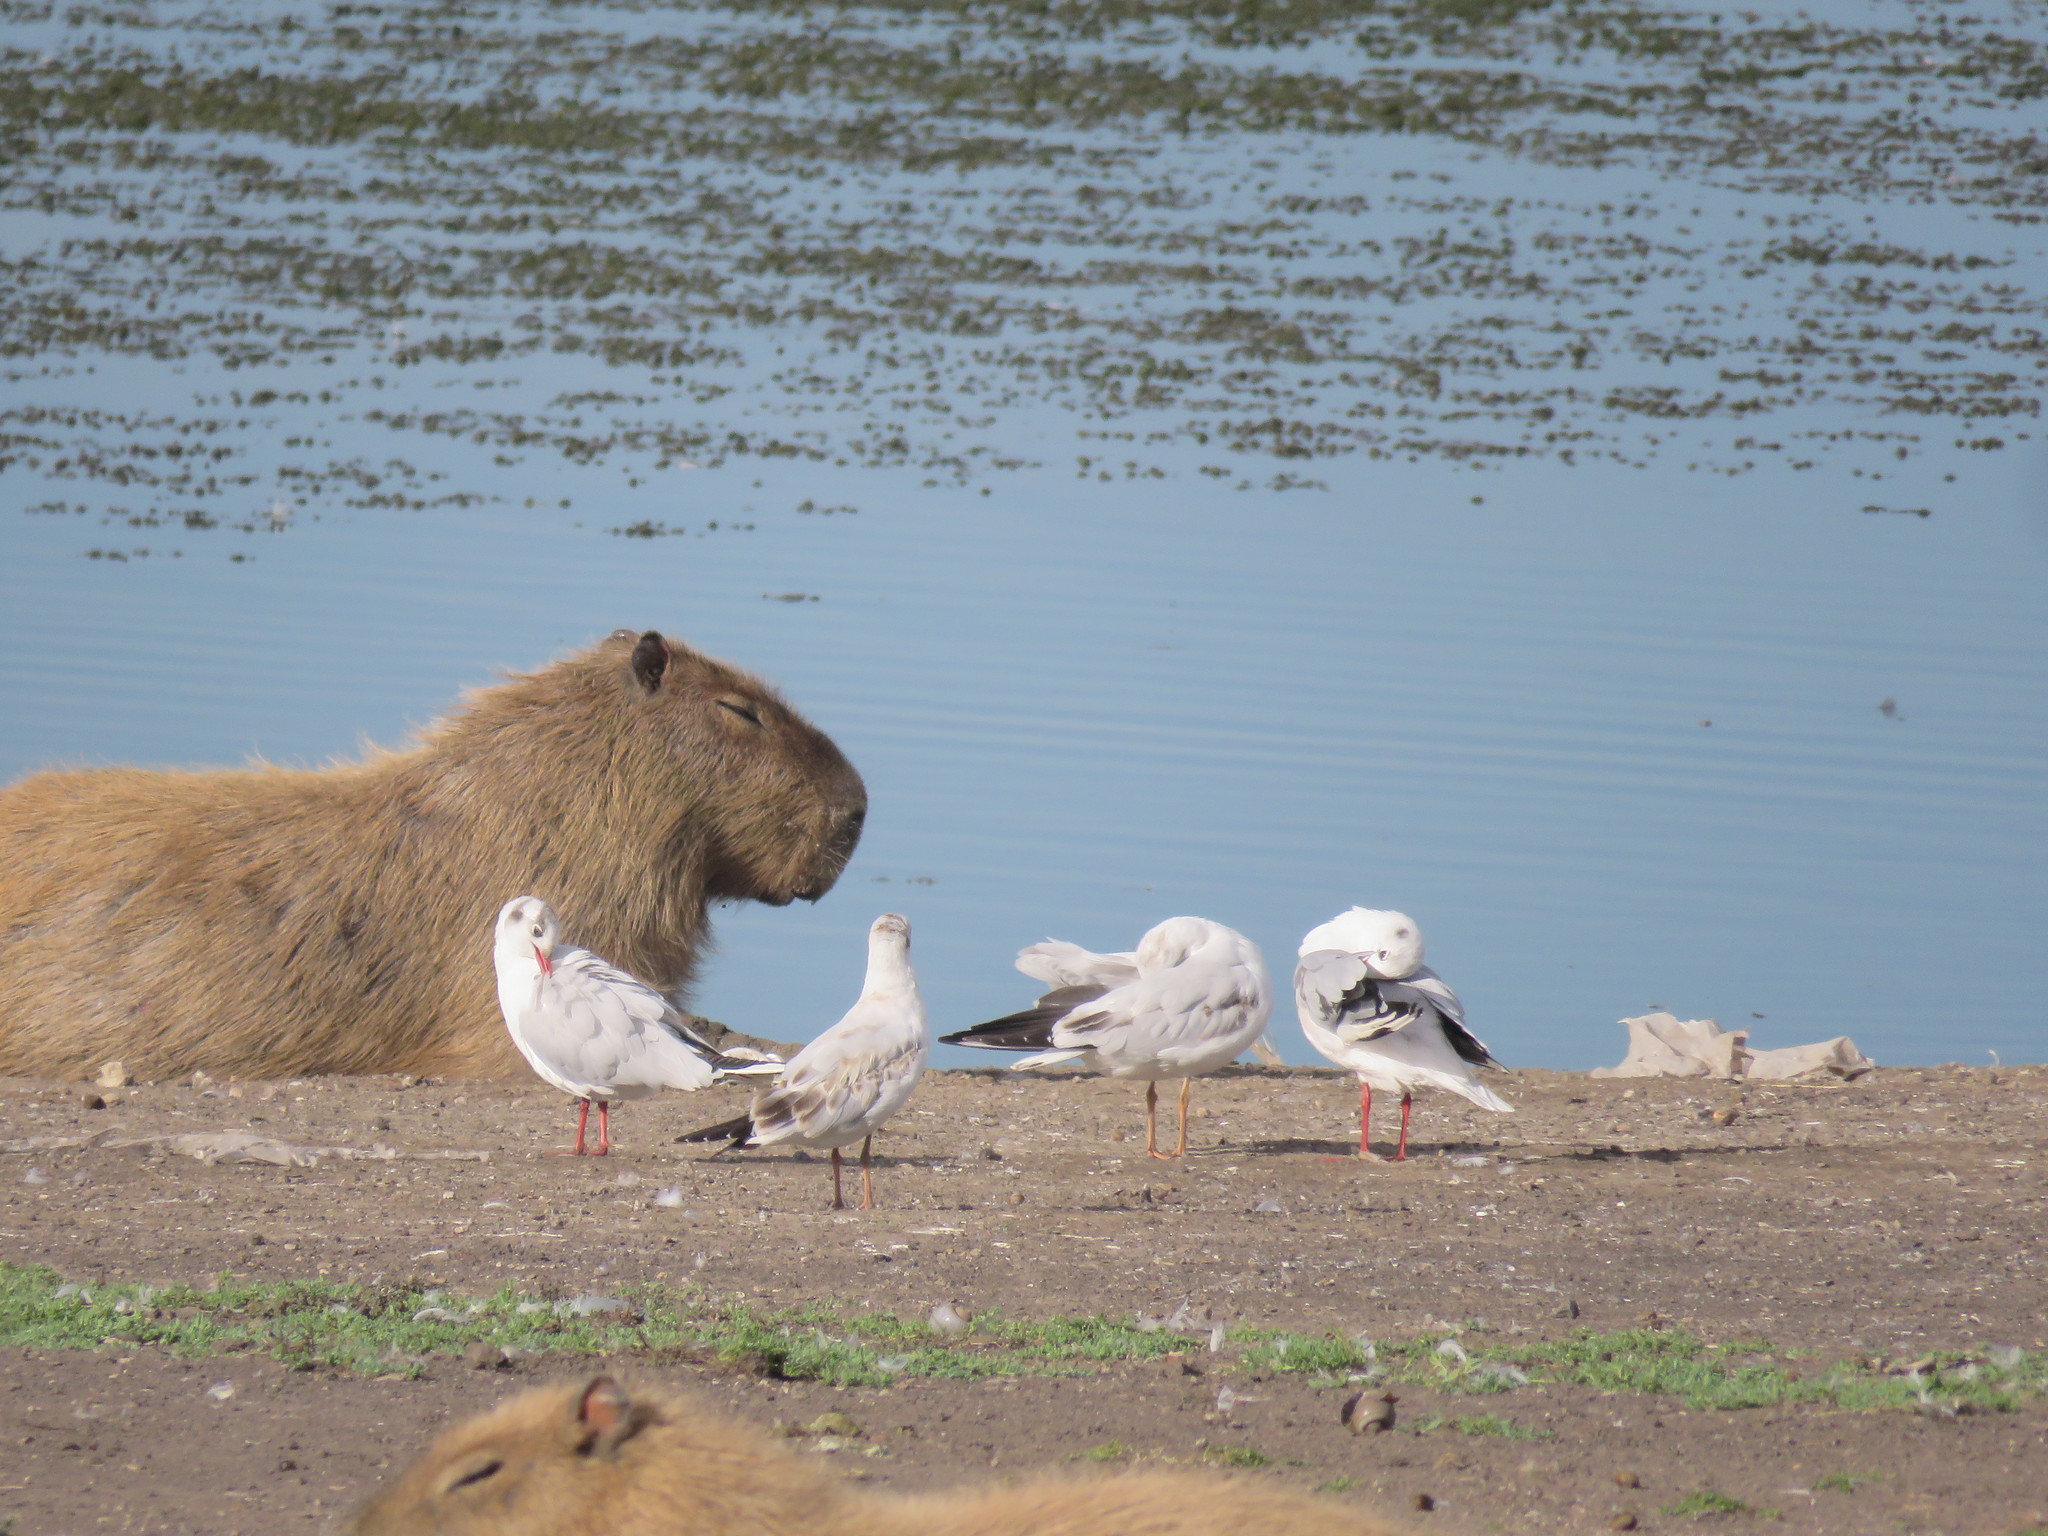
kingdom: Animalia
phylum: Chordata
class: Mammalia
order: Rodentia
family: Caviidae
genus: Hydrochoerus
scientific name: Hydrochoerus hydrochaeris
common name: Capybara
